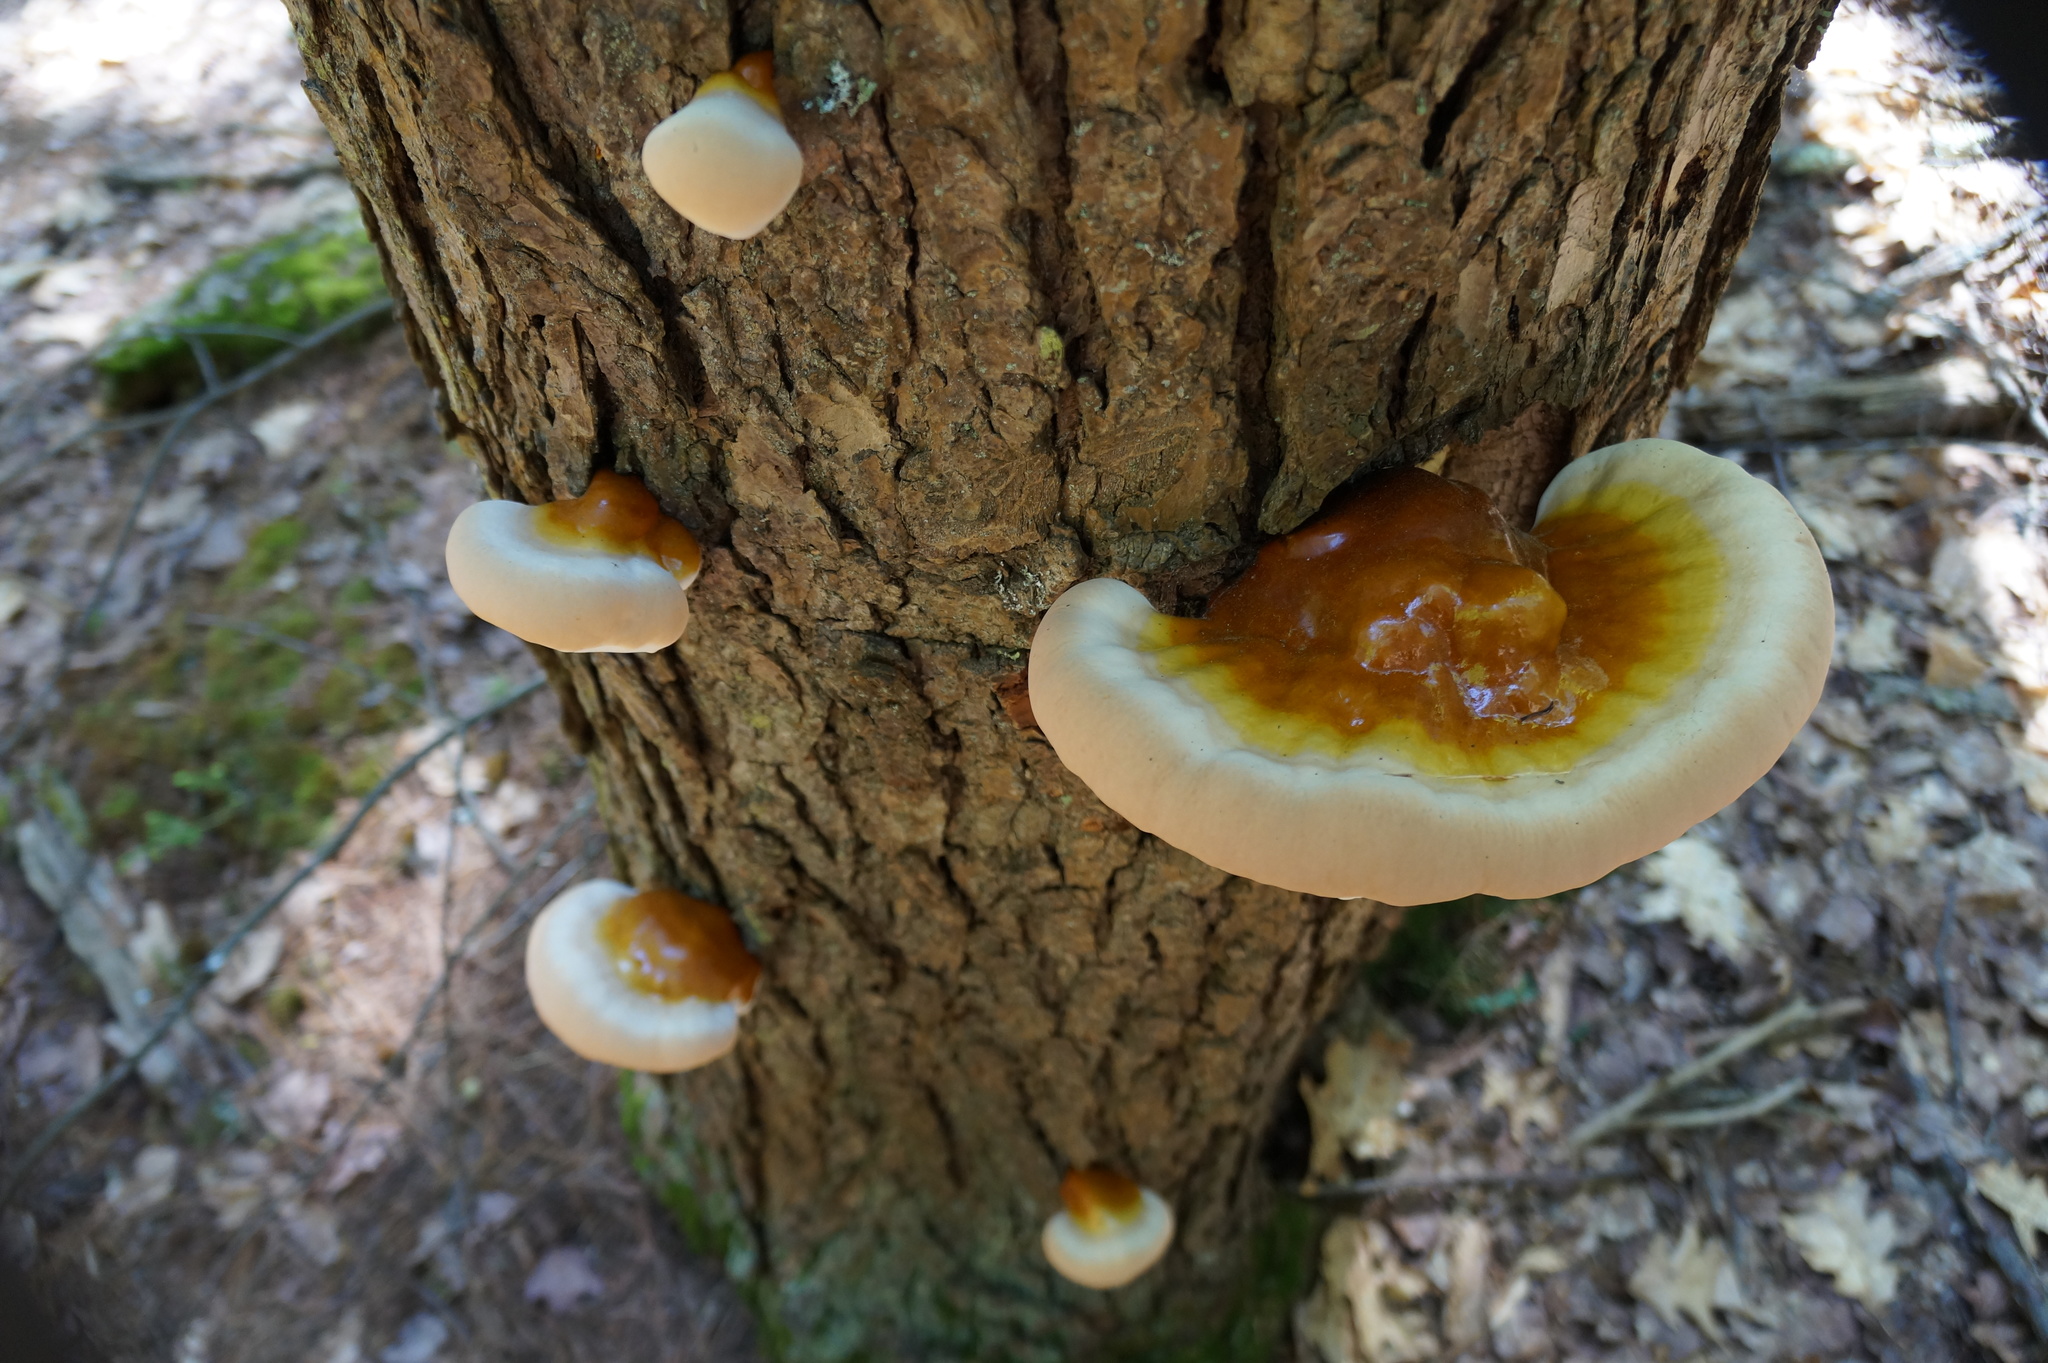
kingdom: Fungi
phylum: Basidiomycota
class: Agaricomycetes
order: Polyporales
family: Polyporaceae
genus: Ganoderma
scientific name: Ganoderma tsugae
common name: Hemlock varnish shelf
